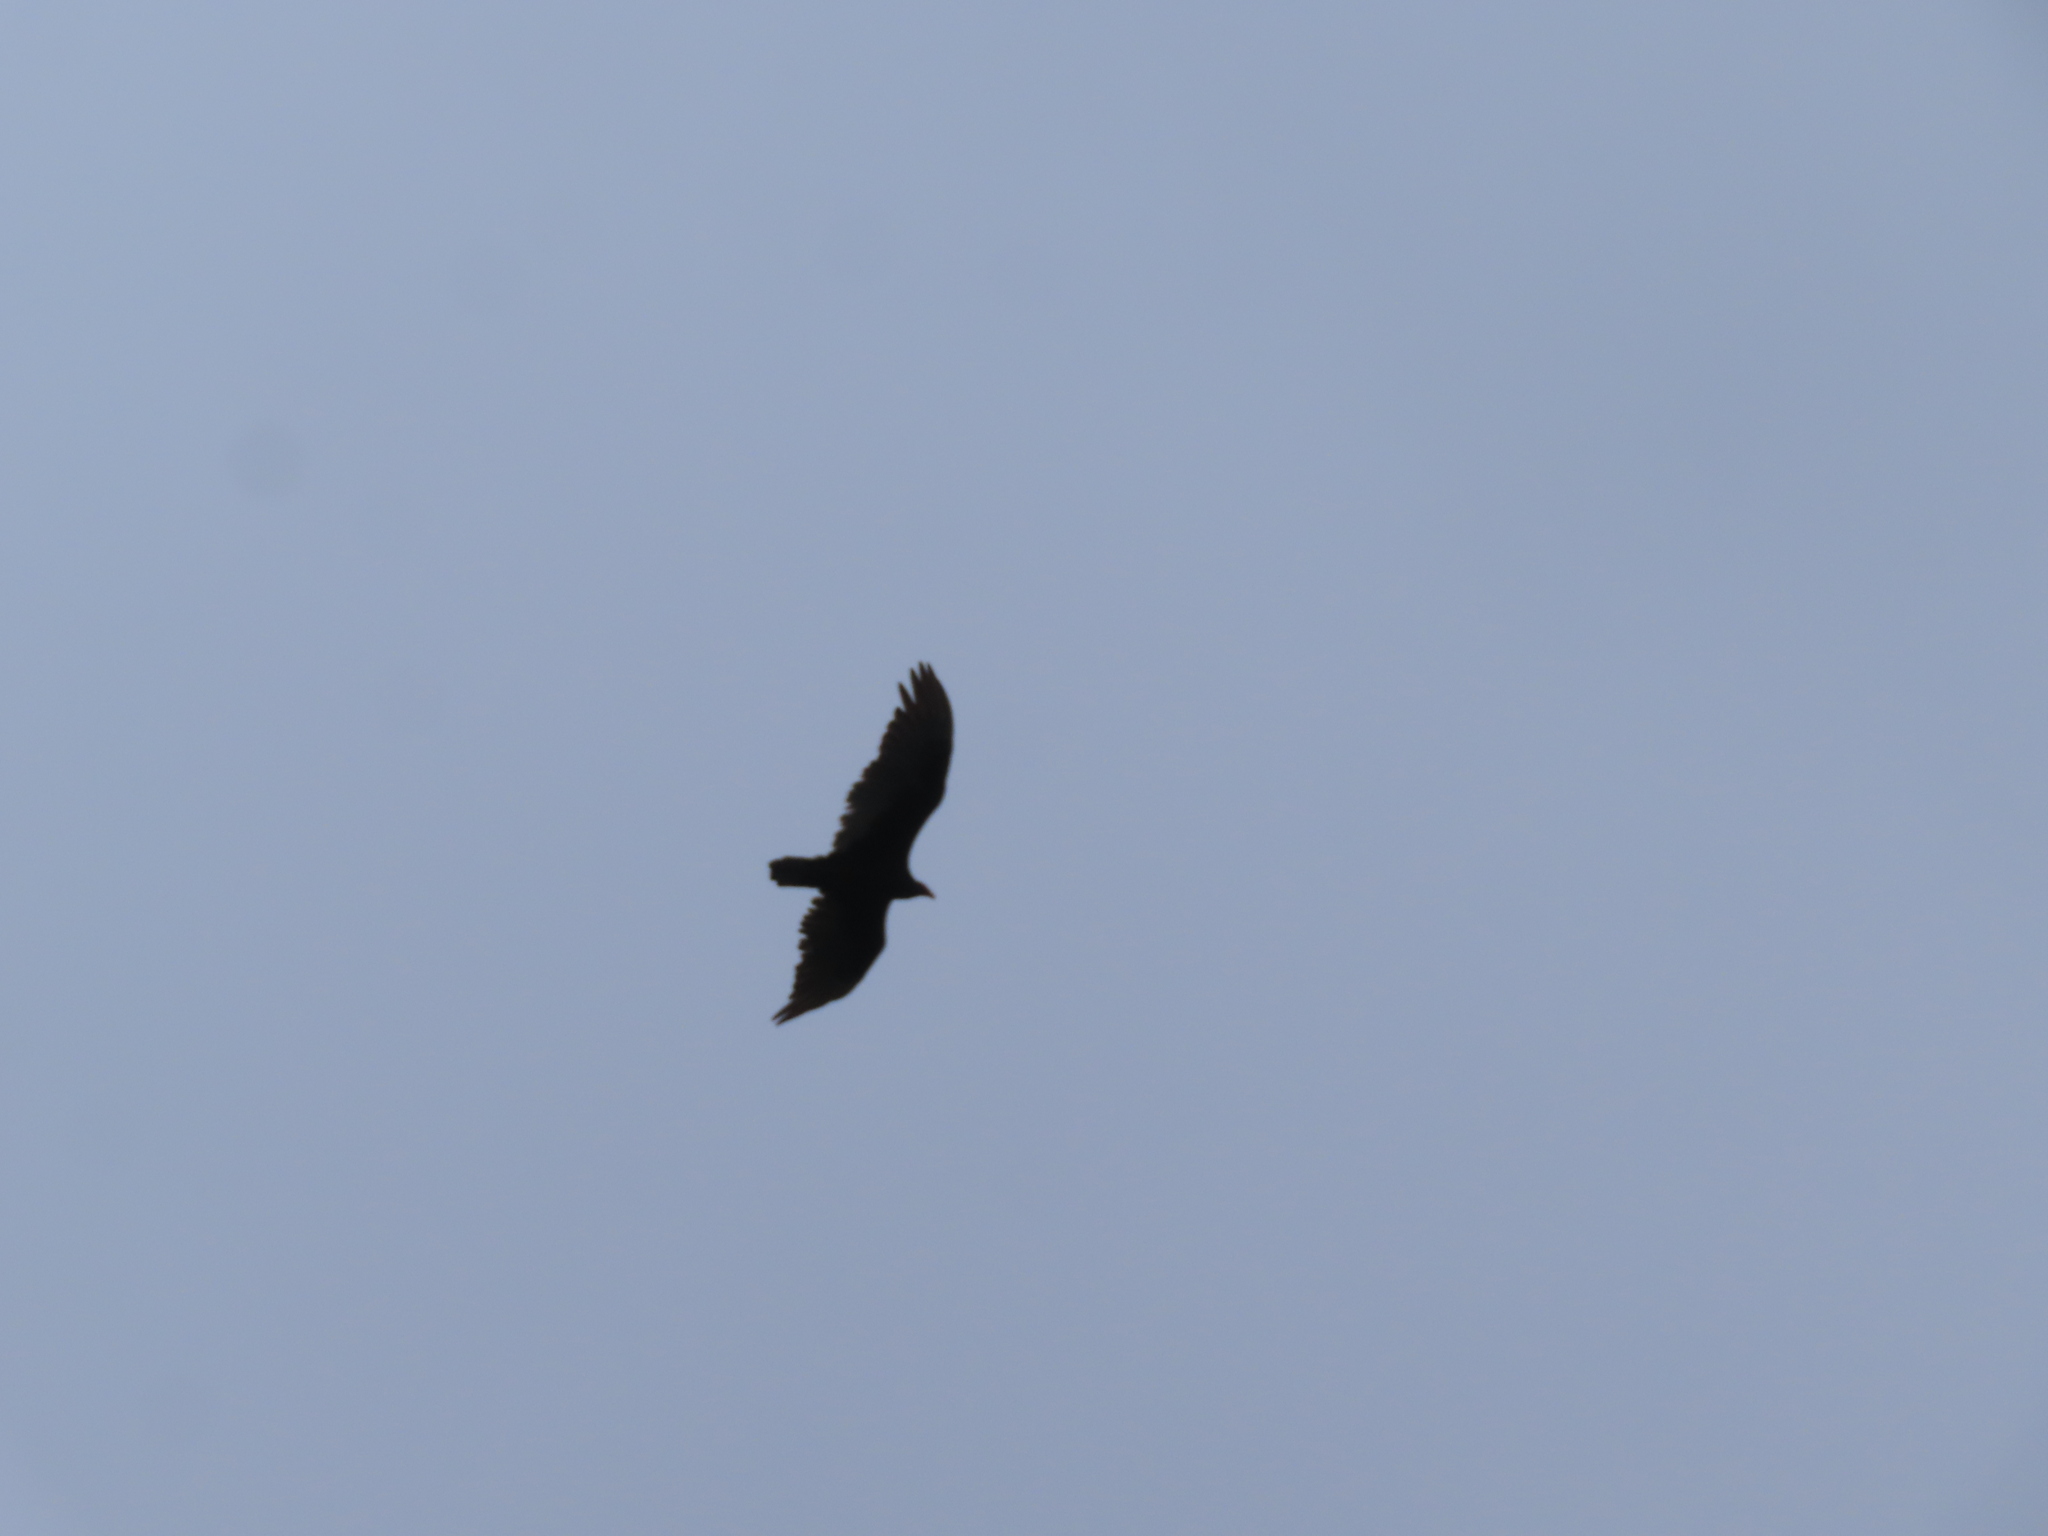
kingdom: Animalia
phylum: Chordata
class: Aves
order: Accipitriformes
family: Cathartidae
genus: Cathartes
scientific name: Cathartes aura
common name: Turkey vulture
